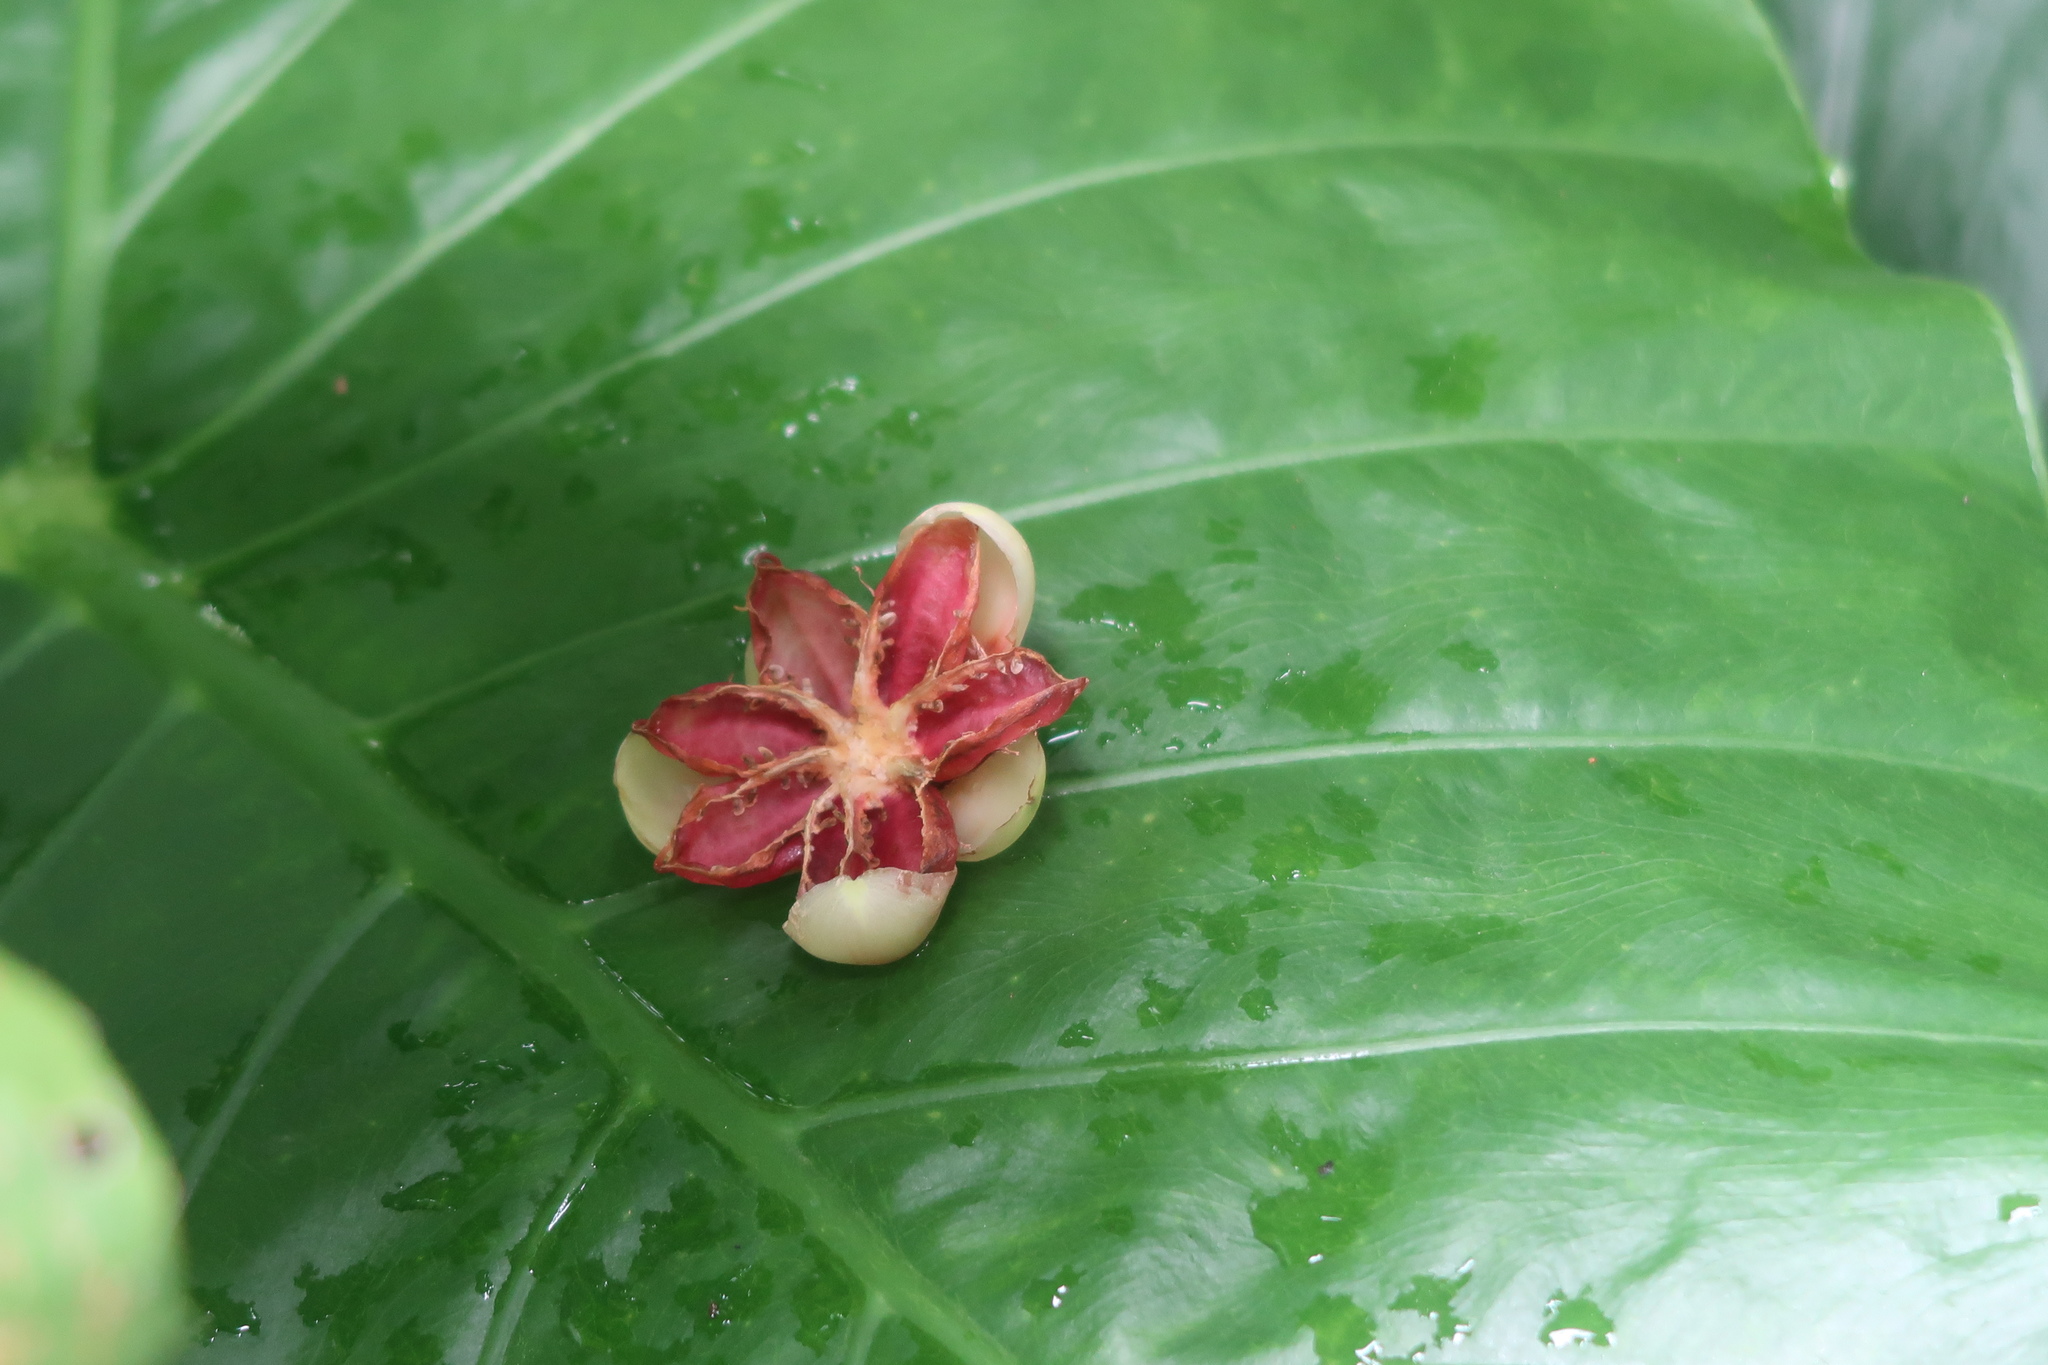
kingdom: Plantae
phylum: Tracheophyta
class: Magnoliopsida
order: Dilleniales
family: Dilleniaceae
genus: Dillenia
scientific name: Dillenia suffruticosa
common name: Shrubby dillenia
